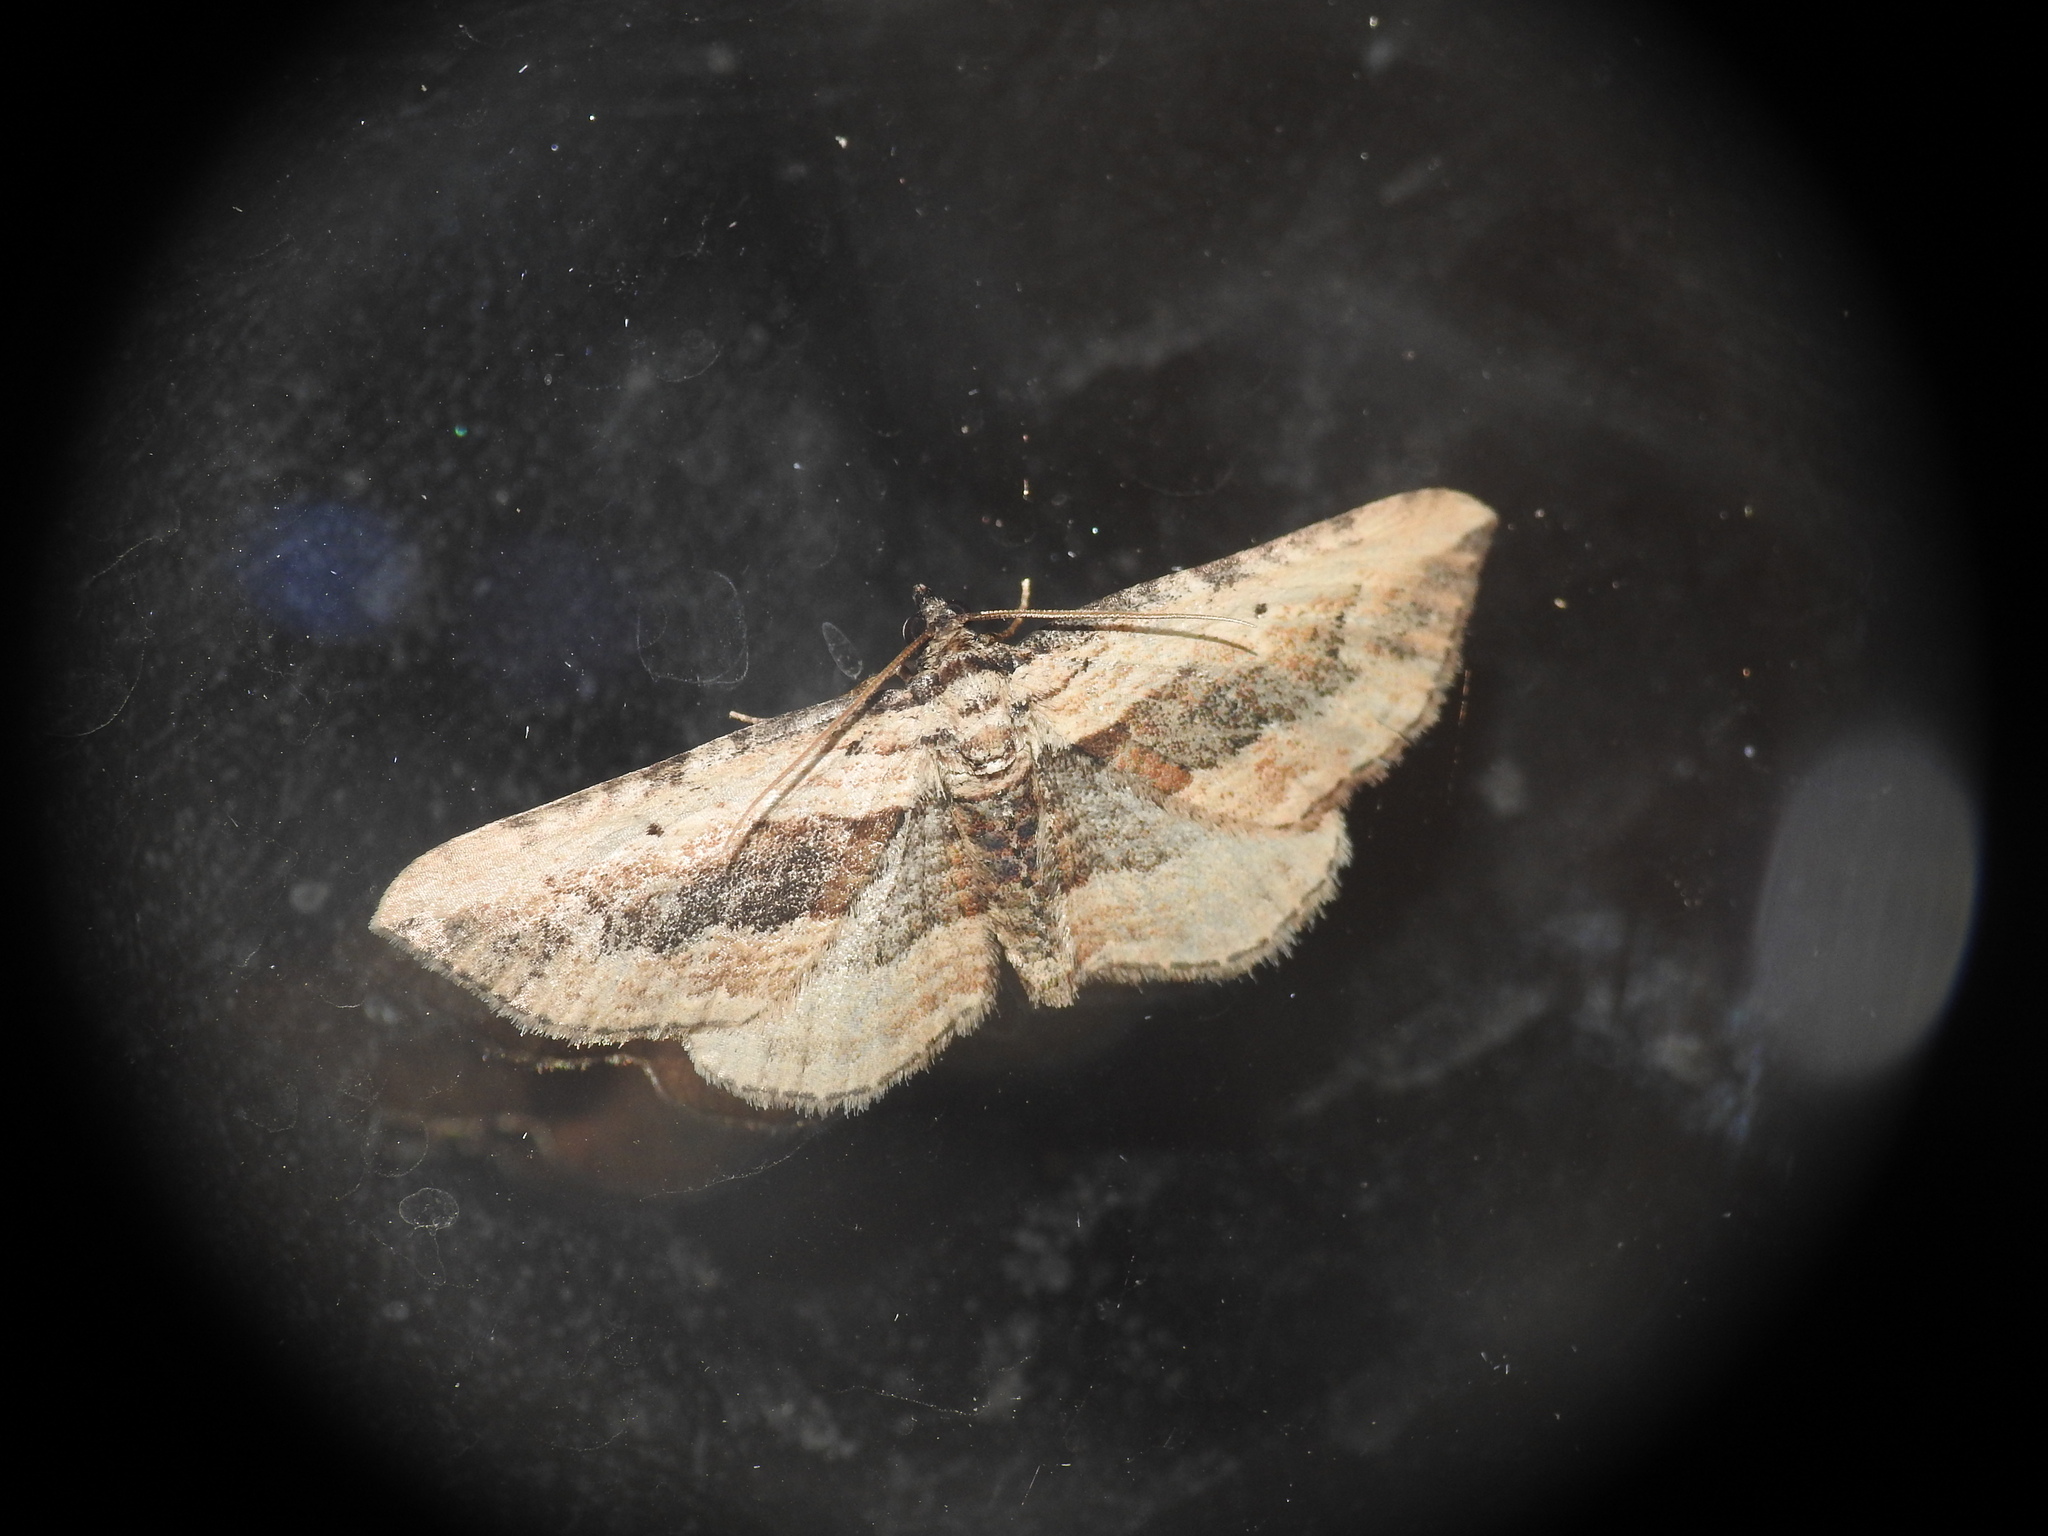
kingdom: Animalia
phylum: Arthropoda
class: Insecta
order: Lepidoptera
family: Geometridae
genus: Horisme
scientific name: Horisme vitalbata
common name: Small waved umber
